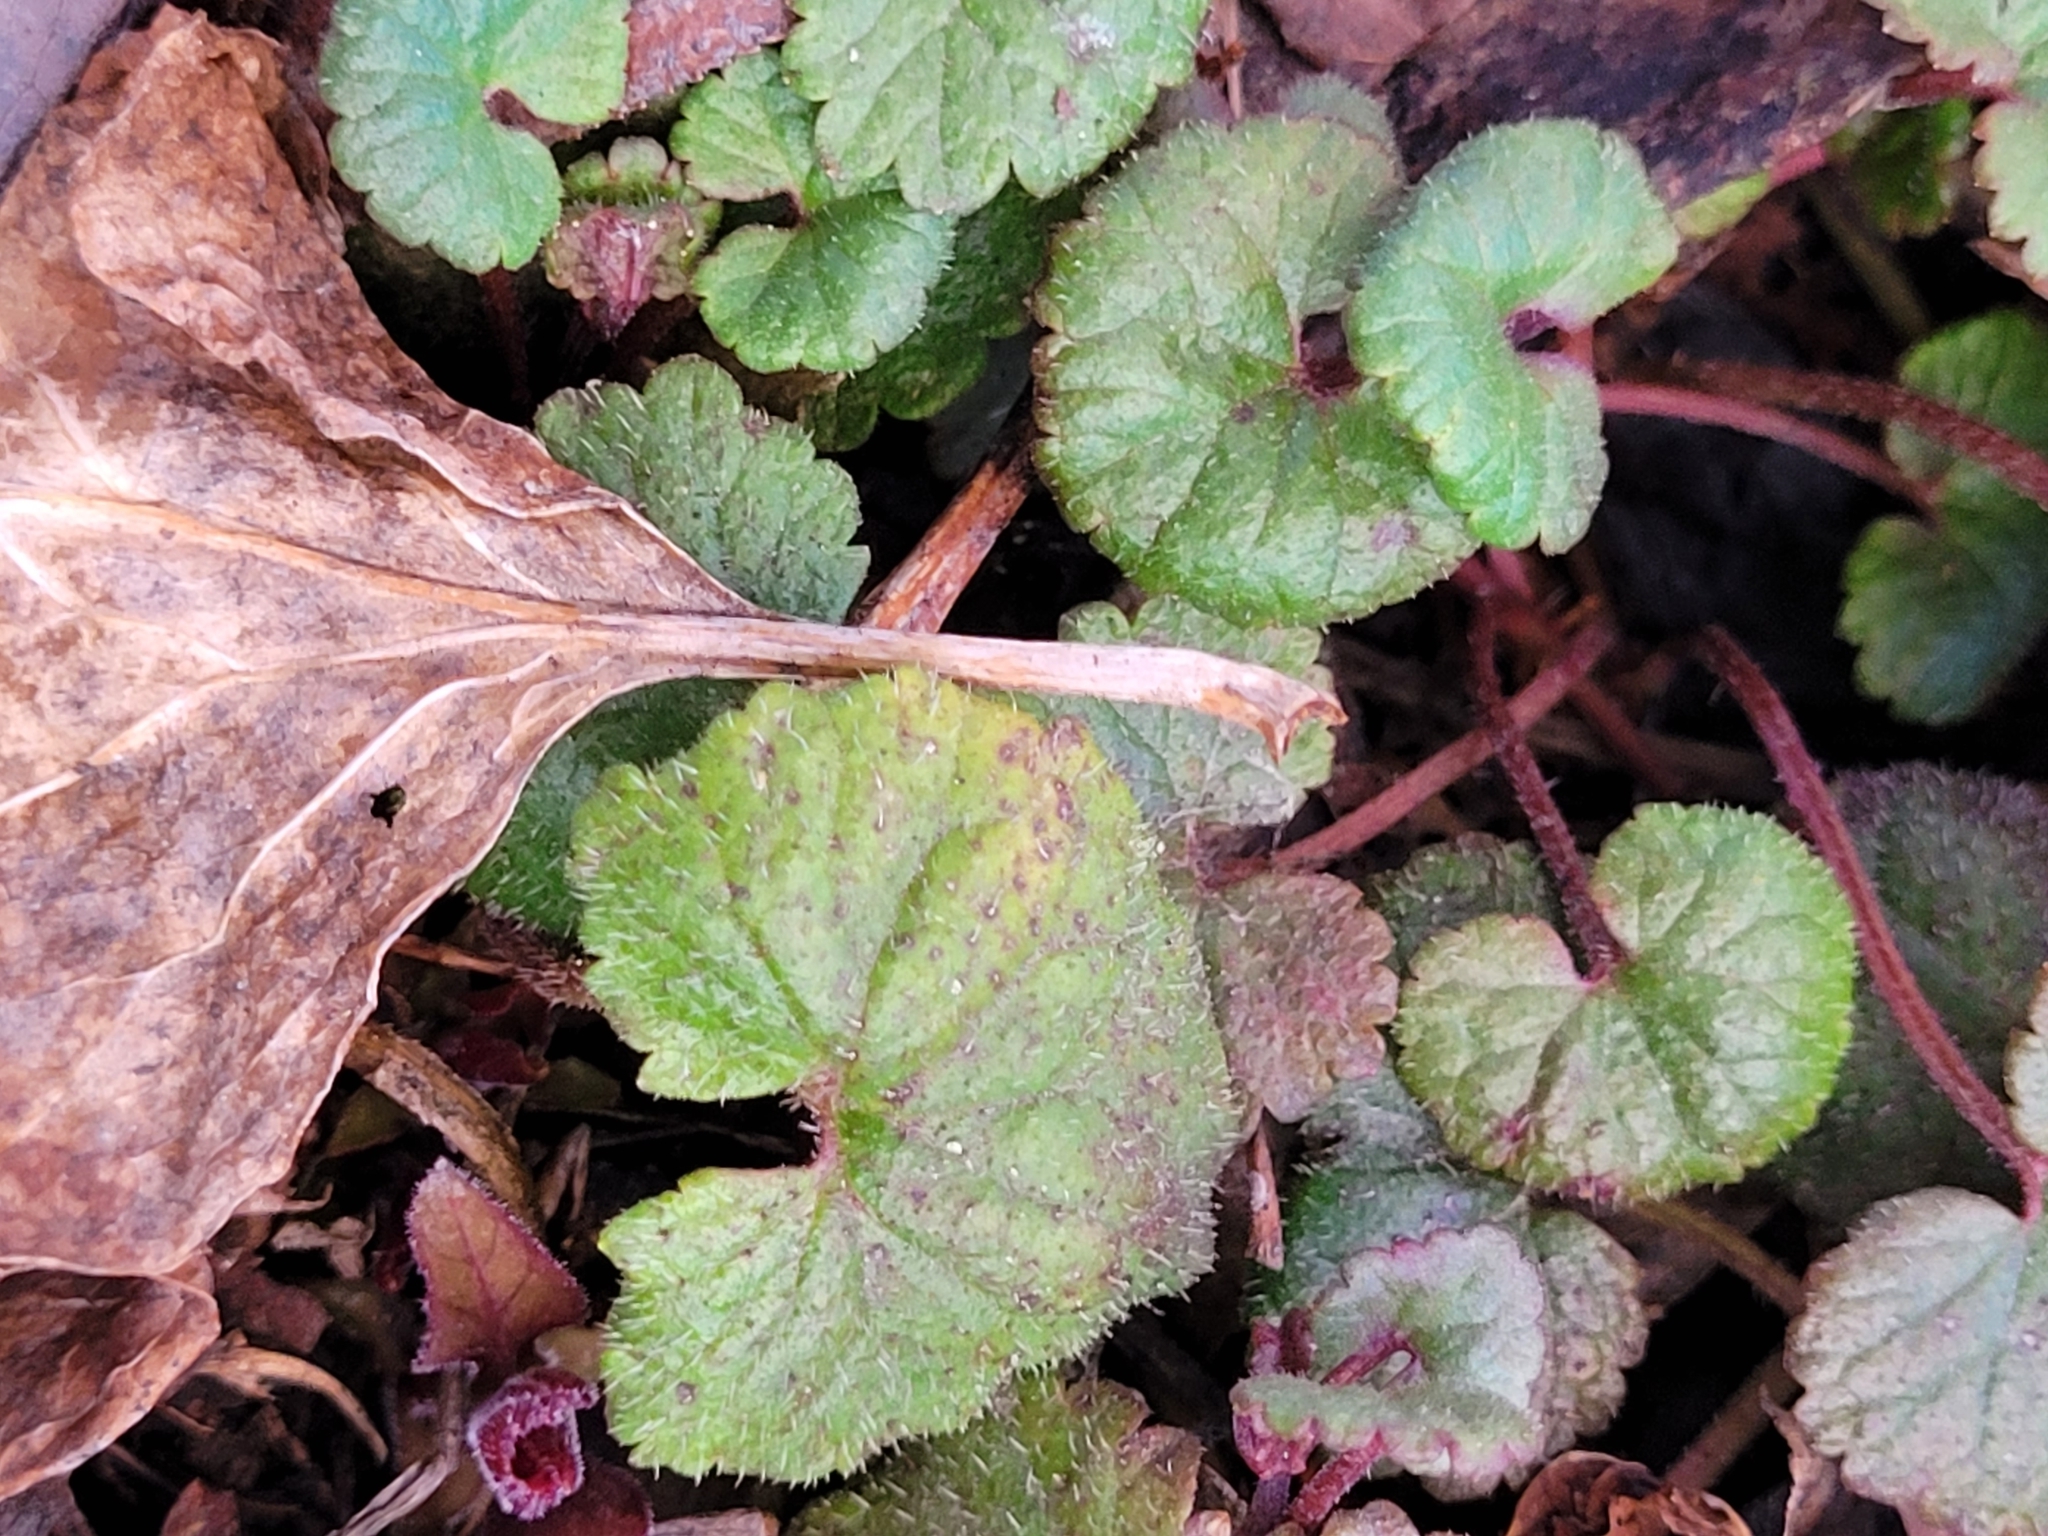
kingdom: Plantae
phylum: Tracheophyta
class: Magnoliopsida
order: Lamiales
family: Lamiaceae
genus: Glechoma
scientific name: Glechoma hederacea
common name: Ground ivy
